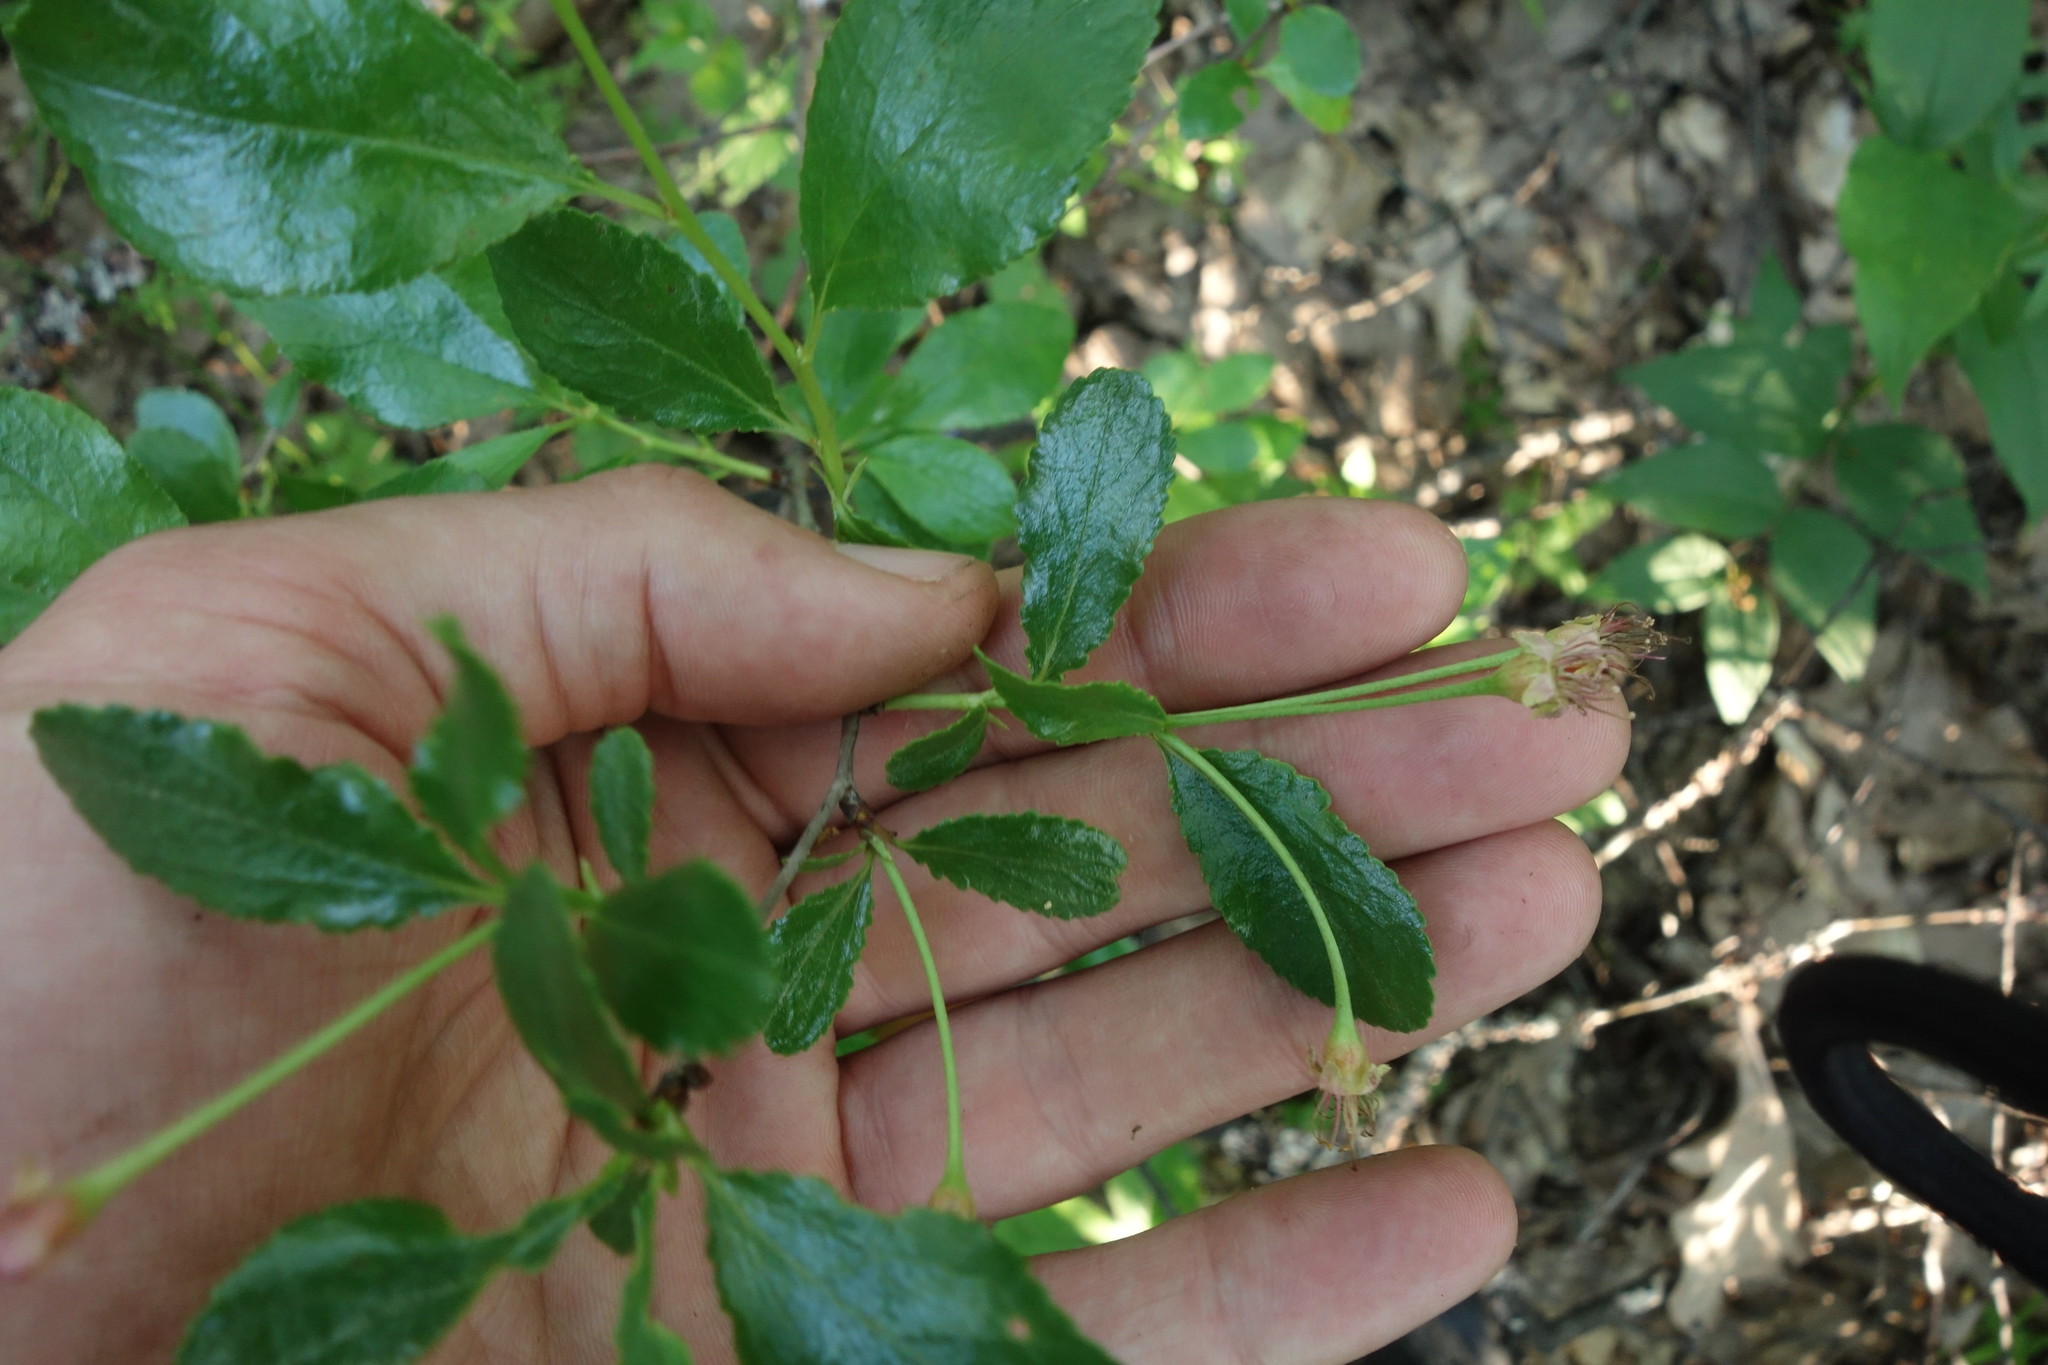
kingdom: Plantae
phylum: Tracheophyta
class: Magnoliopsida
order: Rosales
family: Rosaceae
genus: Prunus
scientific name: Prunus fruticosa
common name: European dwarf cherry
